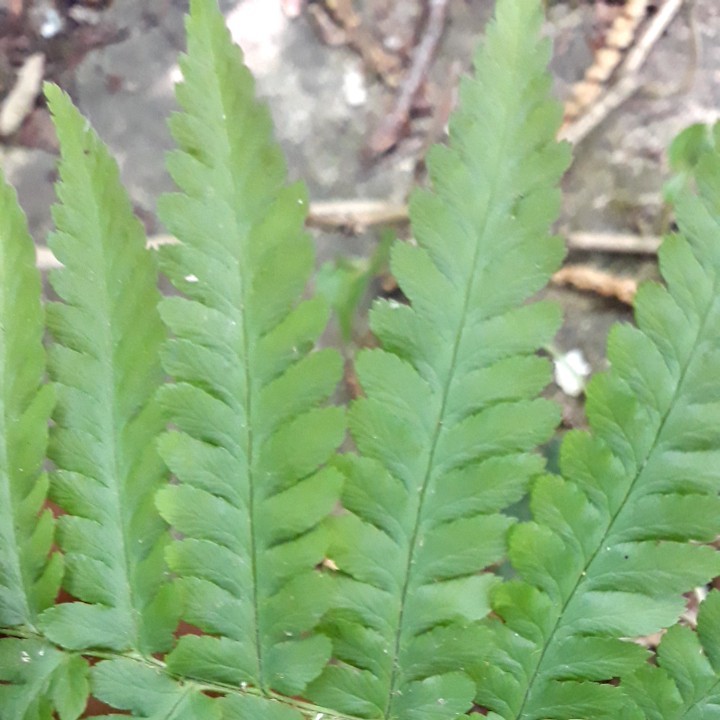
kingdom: Plantae
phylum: Tracheophyta
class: Polypodiopsida
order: Polypodiales
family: Dryopteridaceae
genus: Dryopteris
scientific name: Dryopteris filix-mas
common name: Male fern
